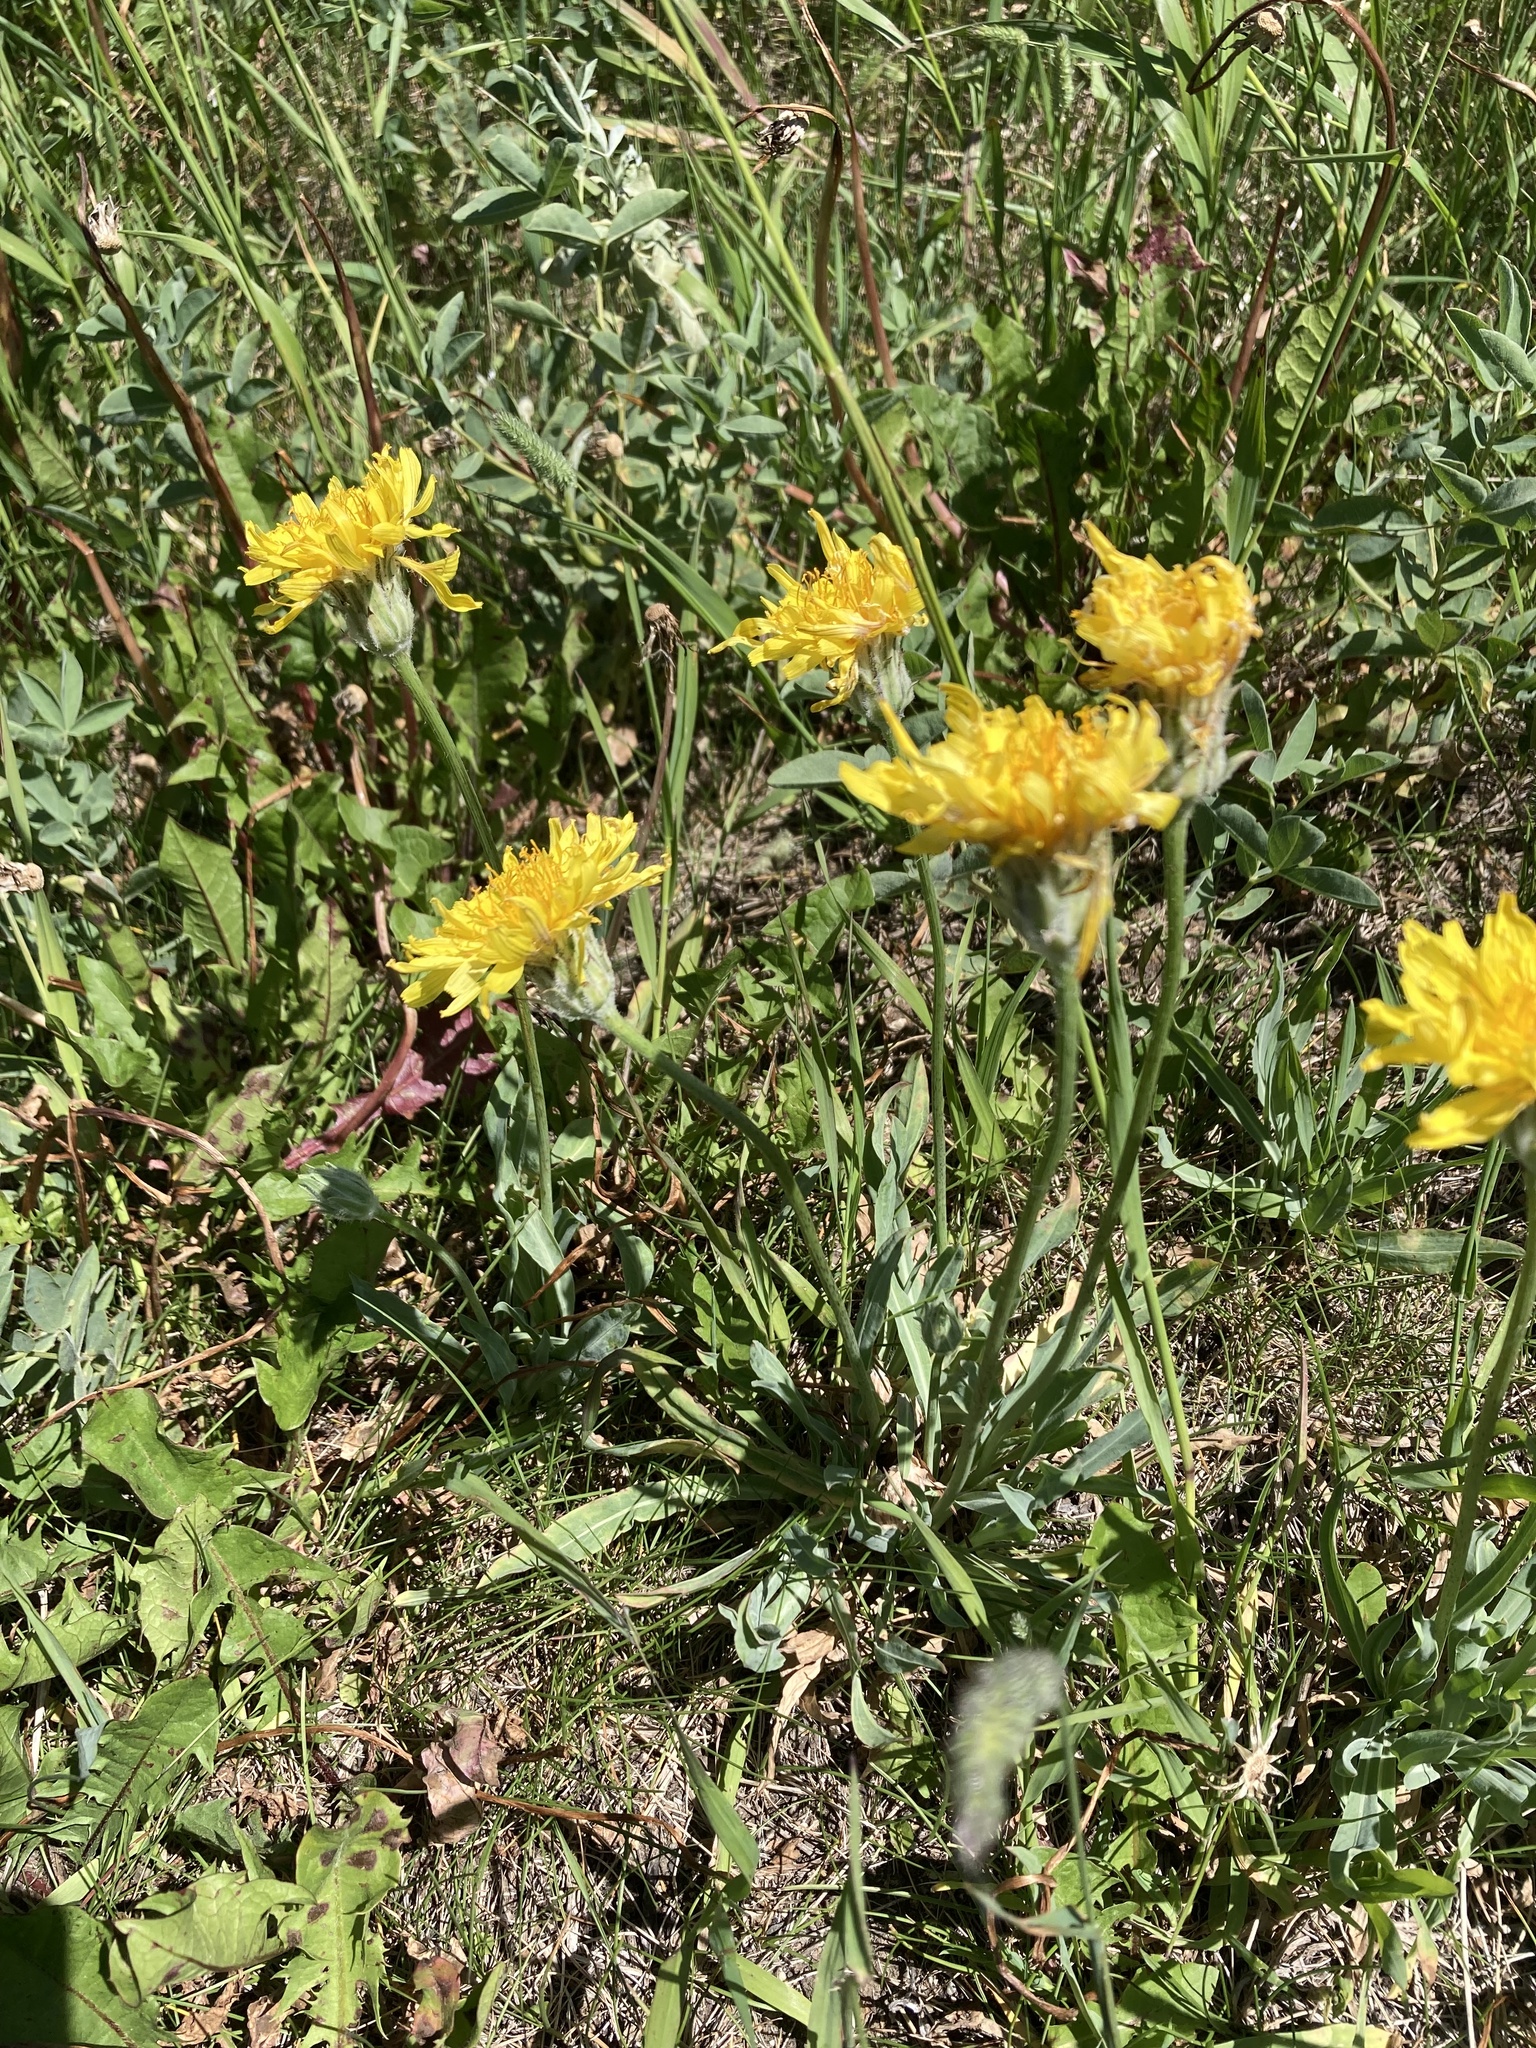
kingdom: Plantae
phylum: Tracheophyta
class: Magnoliopsida
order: Asterales
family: Asteraceae
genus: Agoseris
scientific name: Agoseris glauca
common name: Prairie agoseris
